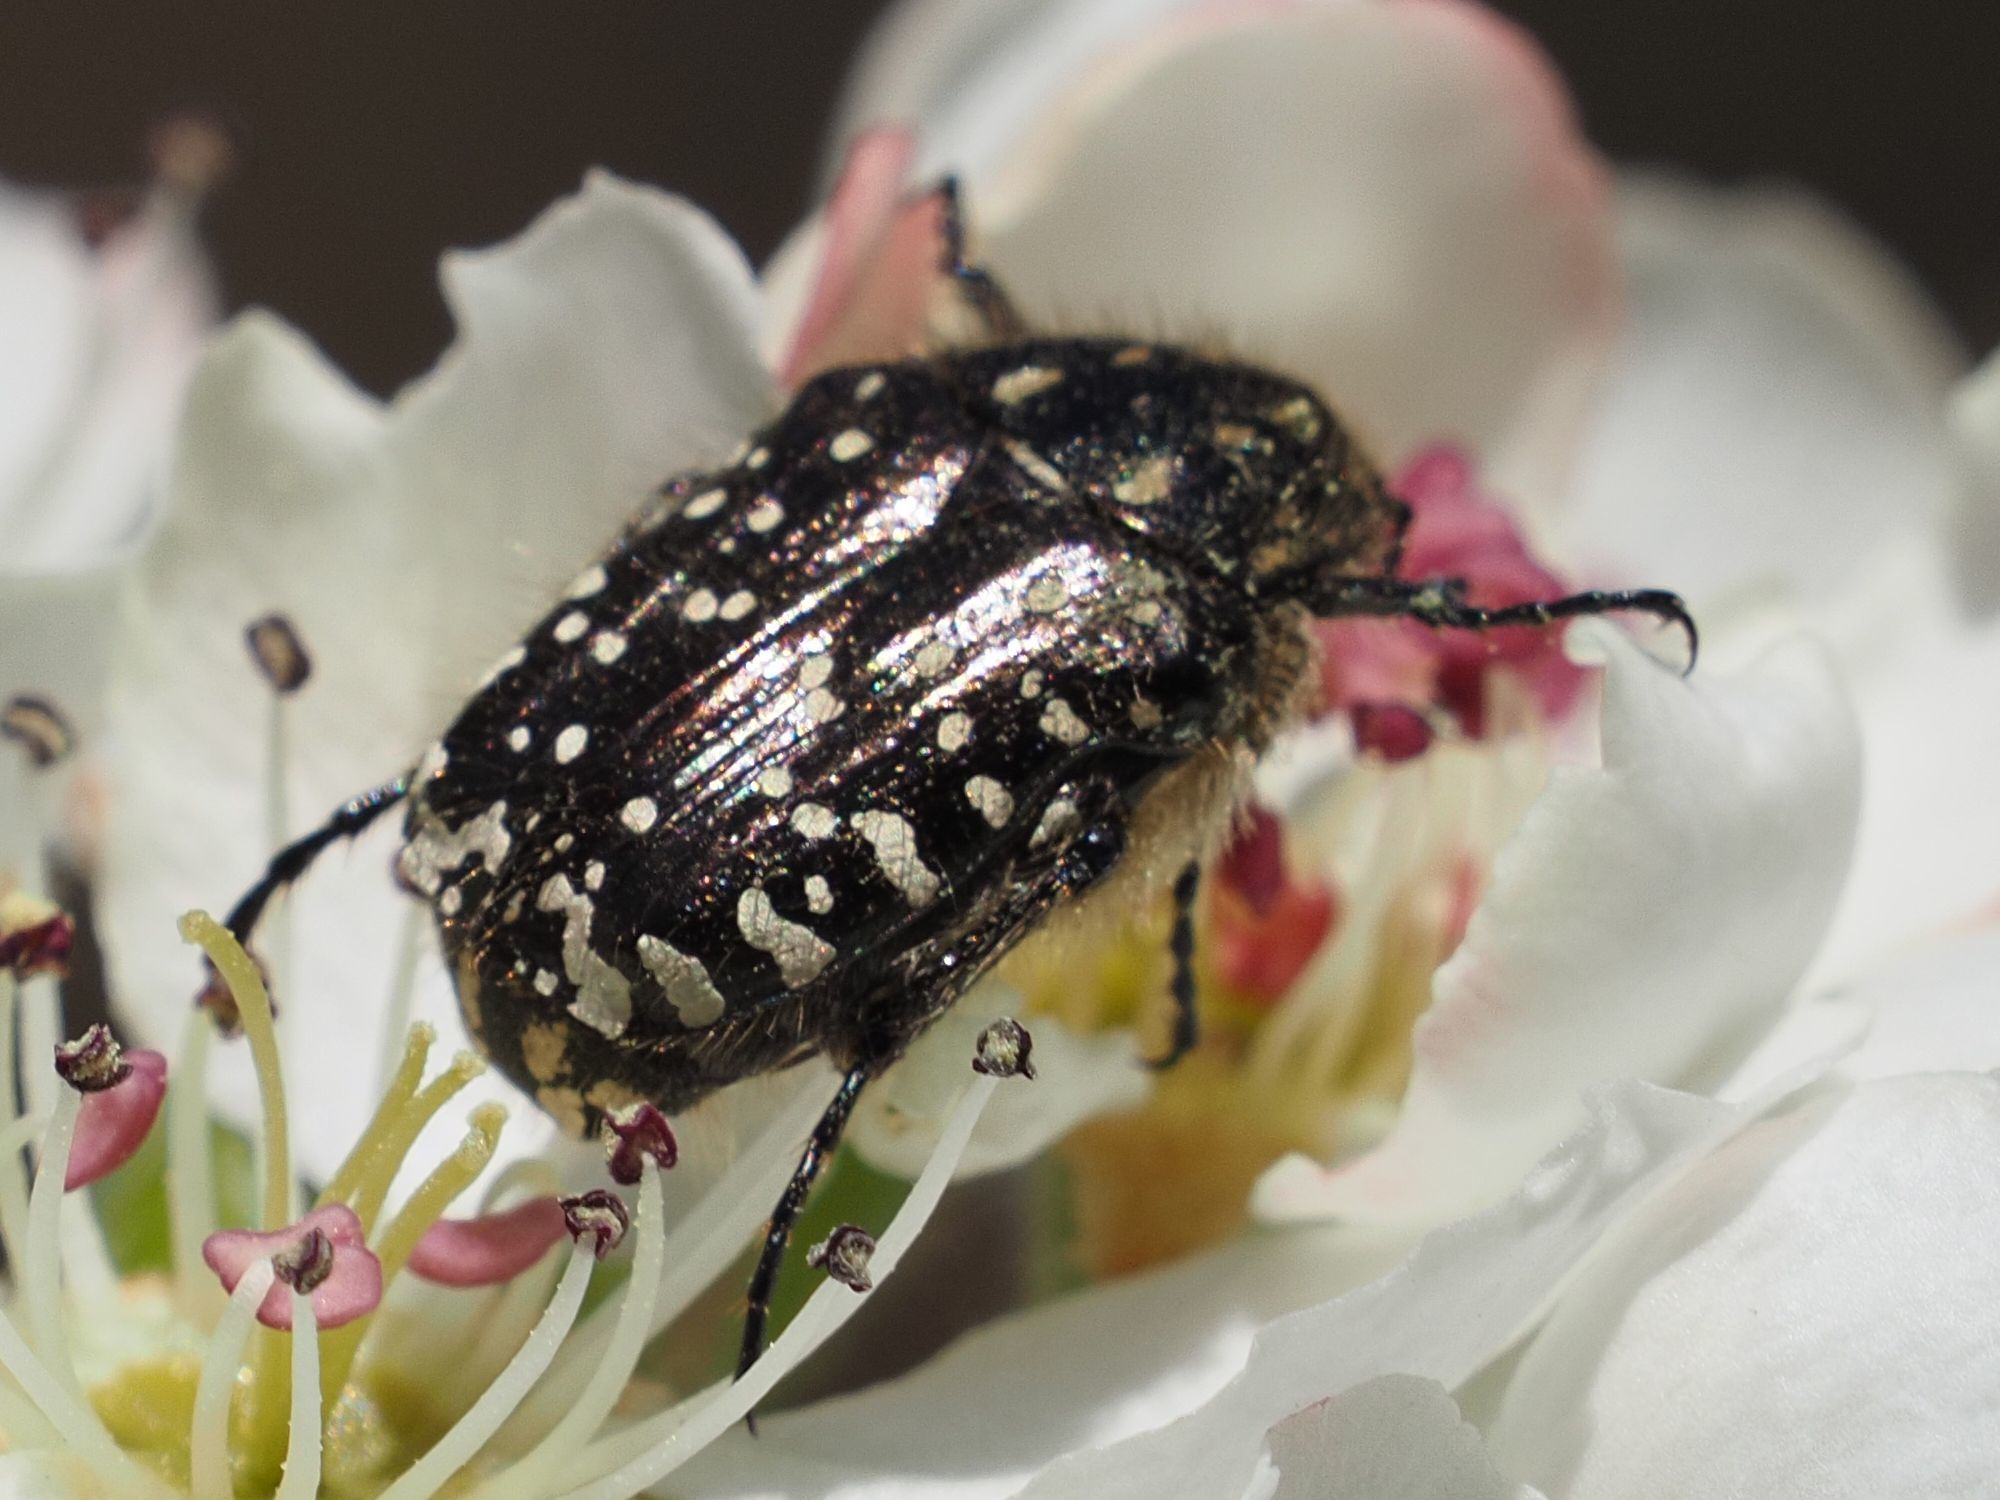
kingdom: Animalia
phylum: Arthropoda
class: Insecta
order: Coleoptera
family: Scarabaeidae
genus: Oxythyrea
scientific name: Oxythyrea funesta
